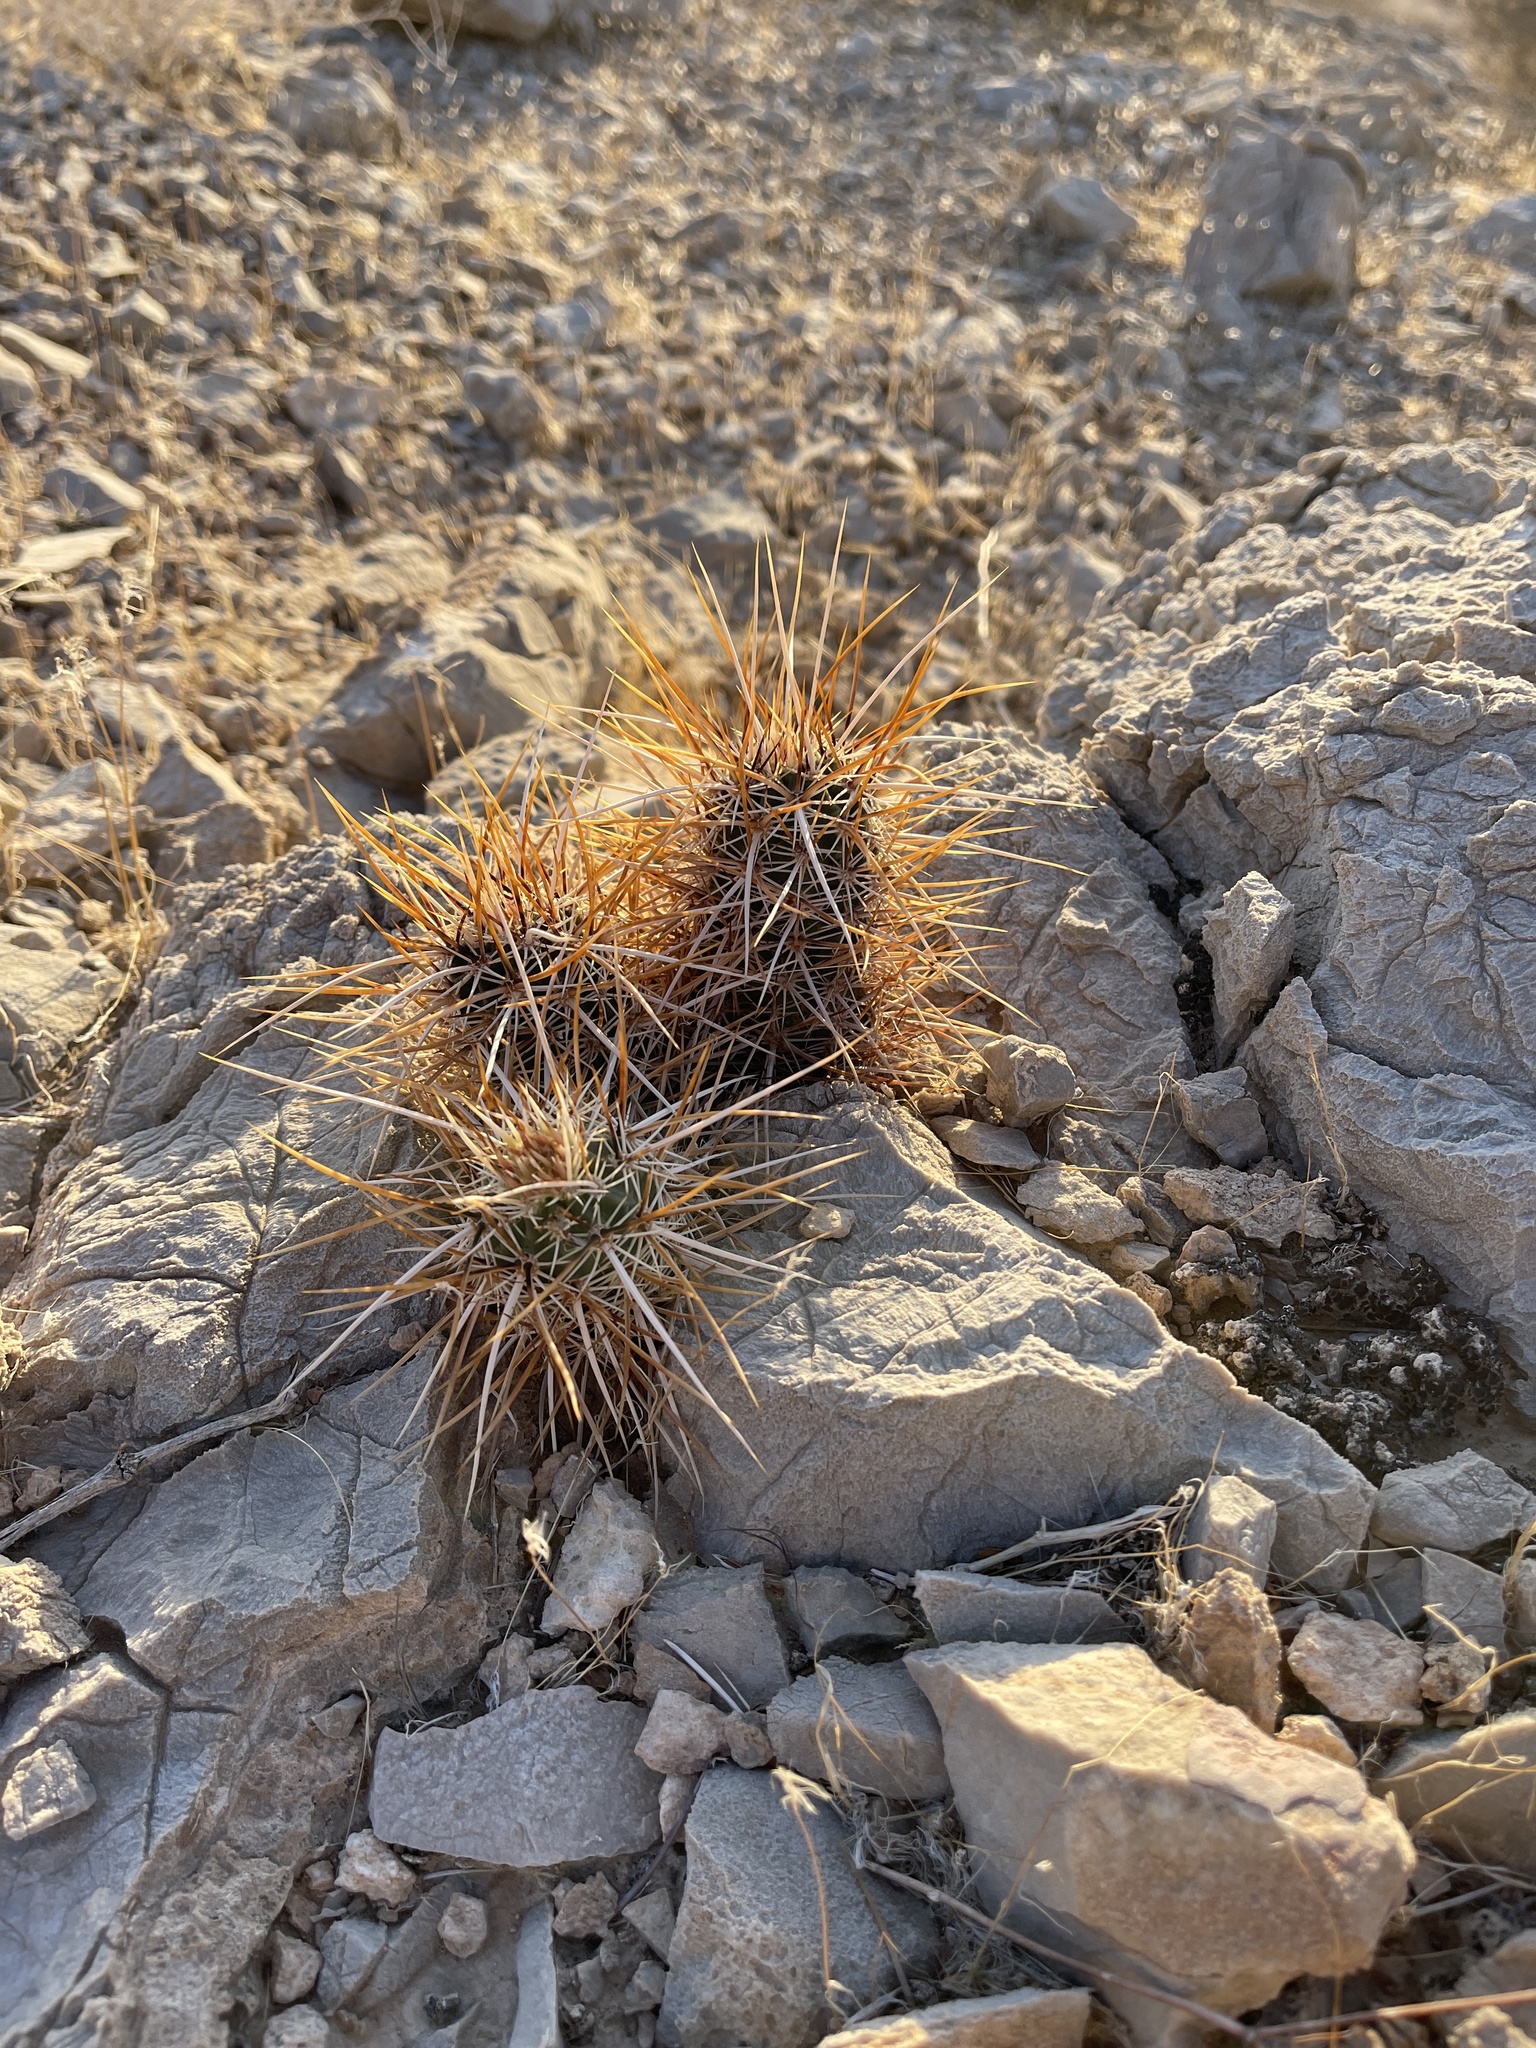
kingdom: Plantae
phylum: Tracheophyta
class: Magnoliopsida
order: Caryophyllales
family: Cactaceae
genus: Echinocereus
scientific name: Echinocereus engelmannii
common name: Engelmann's hedgehog cactus
